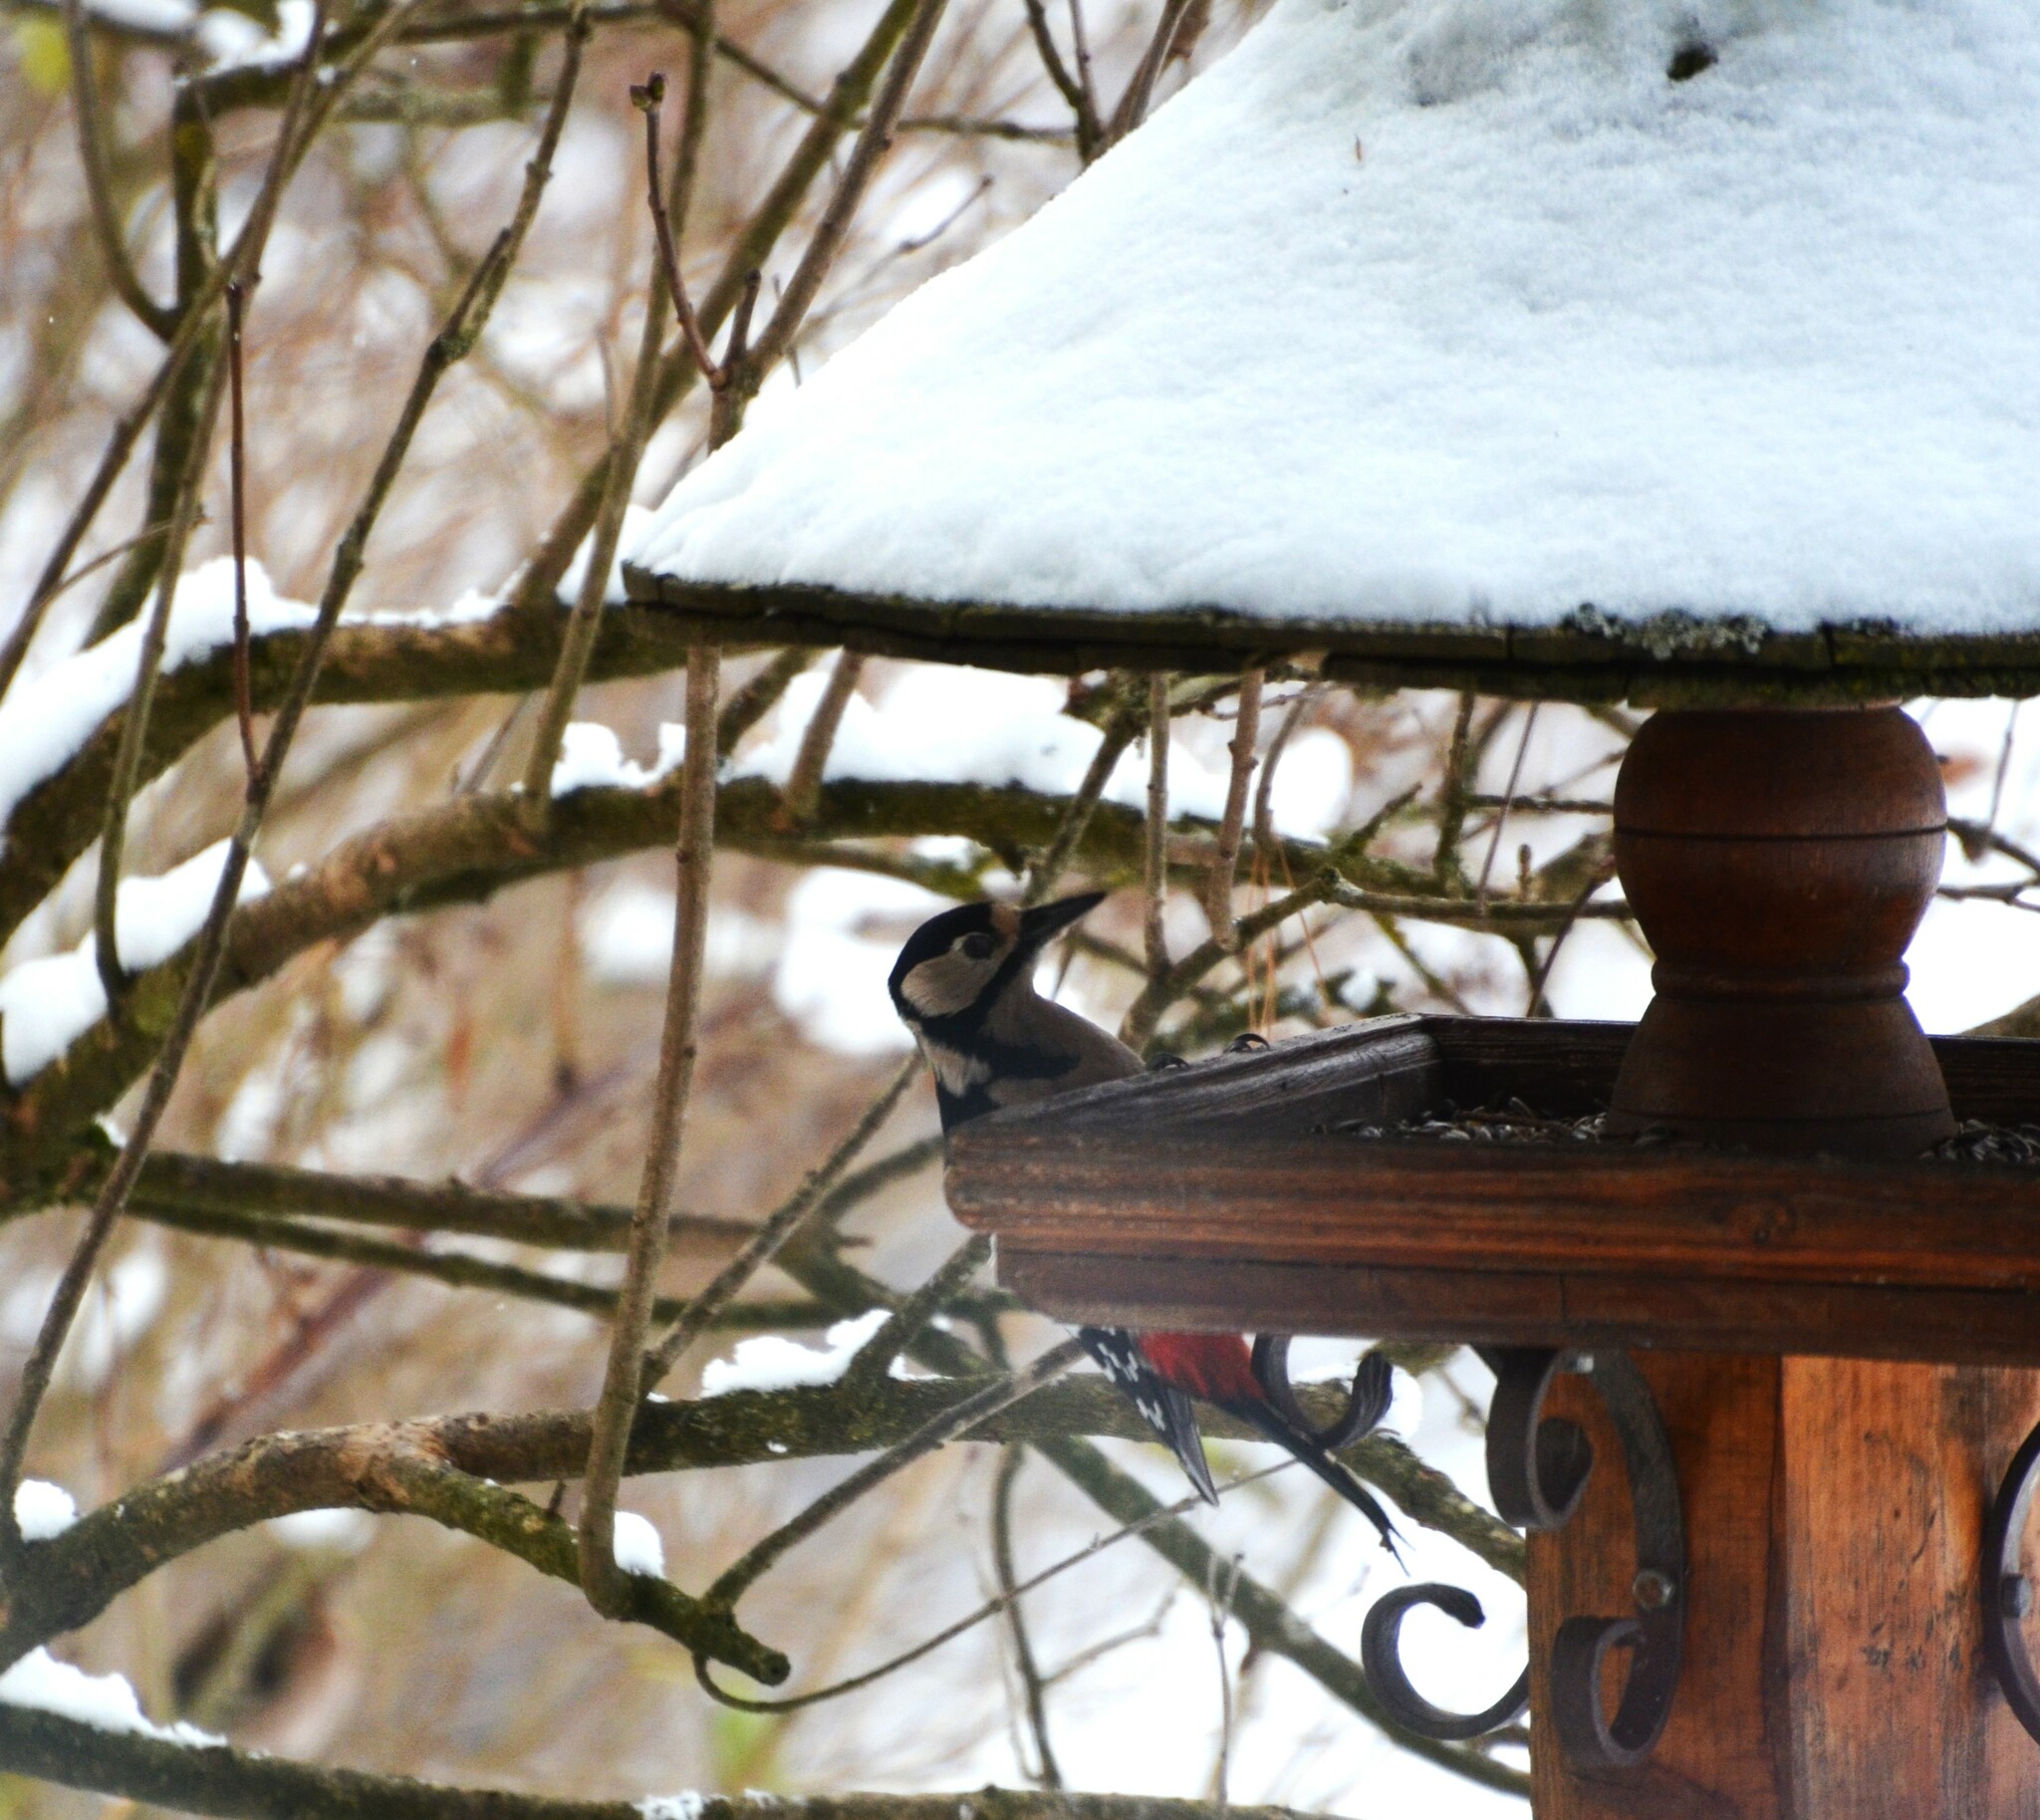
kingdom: Animalia
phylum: Chordata
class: Aves
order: Piciformes
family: Picidae
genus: Dendrocopos
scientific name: Dendrocopos major
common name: Great spotted woodpecker
